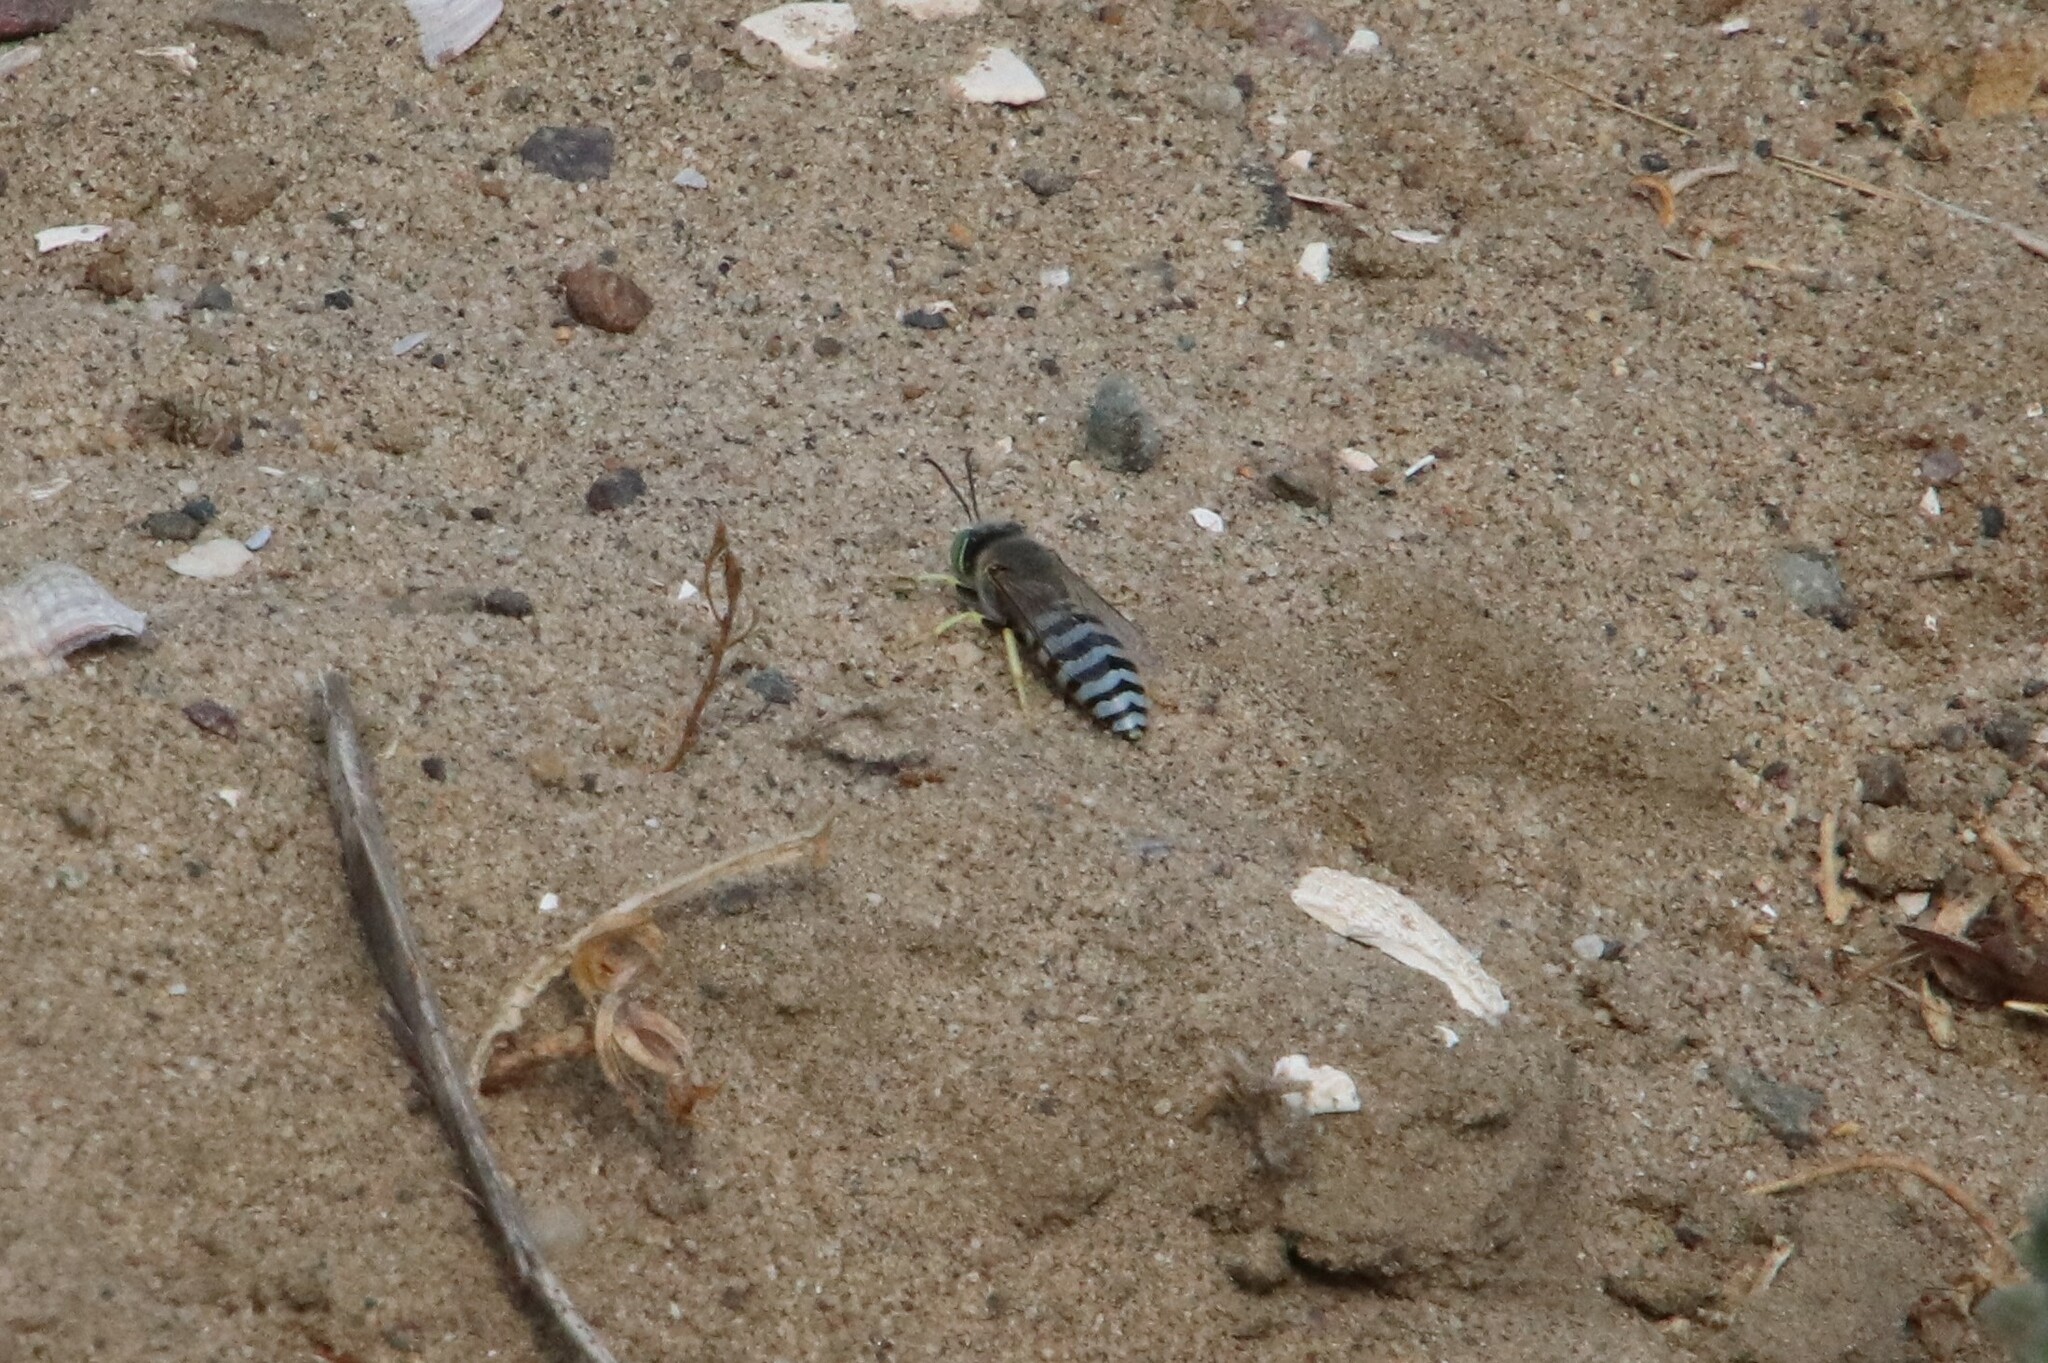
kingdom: Animalia
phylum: Arthropoda
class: Insecta
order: Hymenoptera
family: Crabronidae
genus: Bembix
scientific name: Bembix americana
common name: American sand wasp
